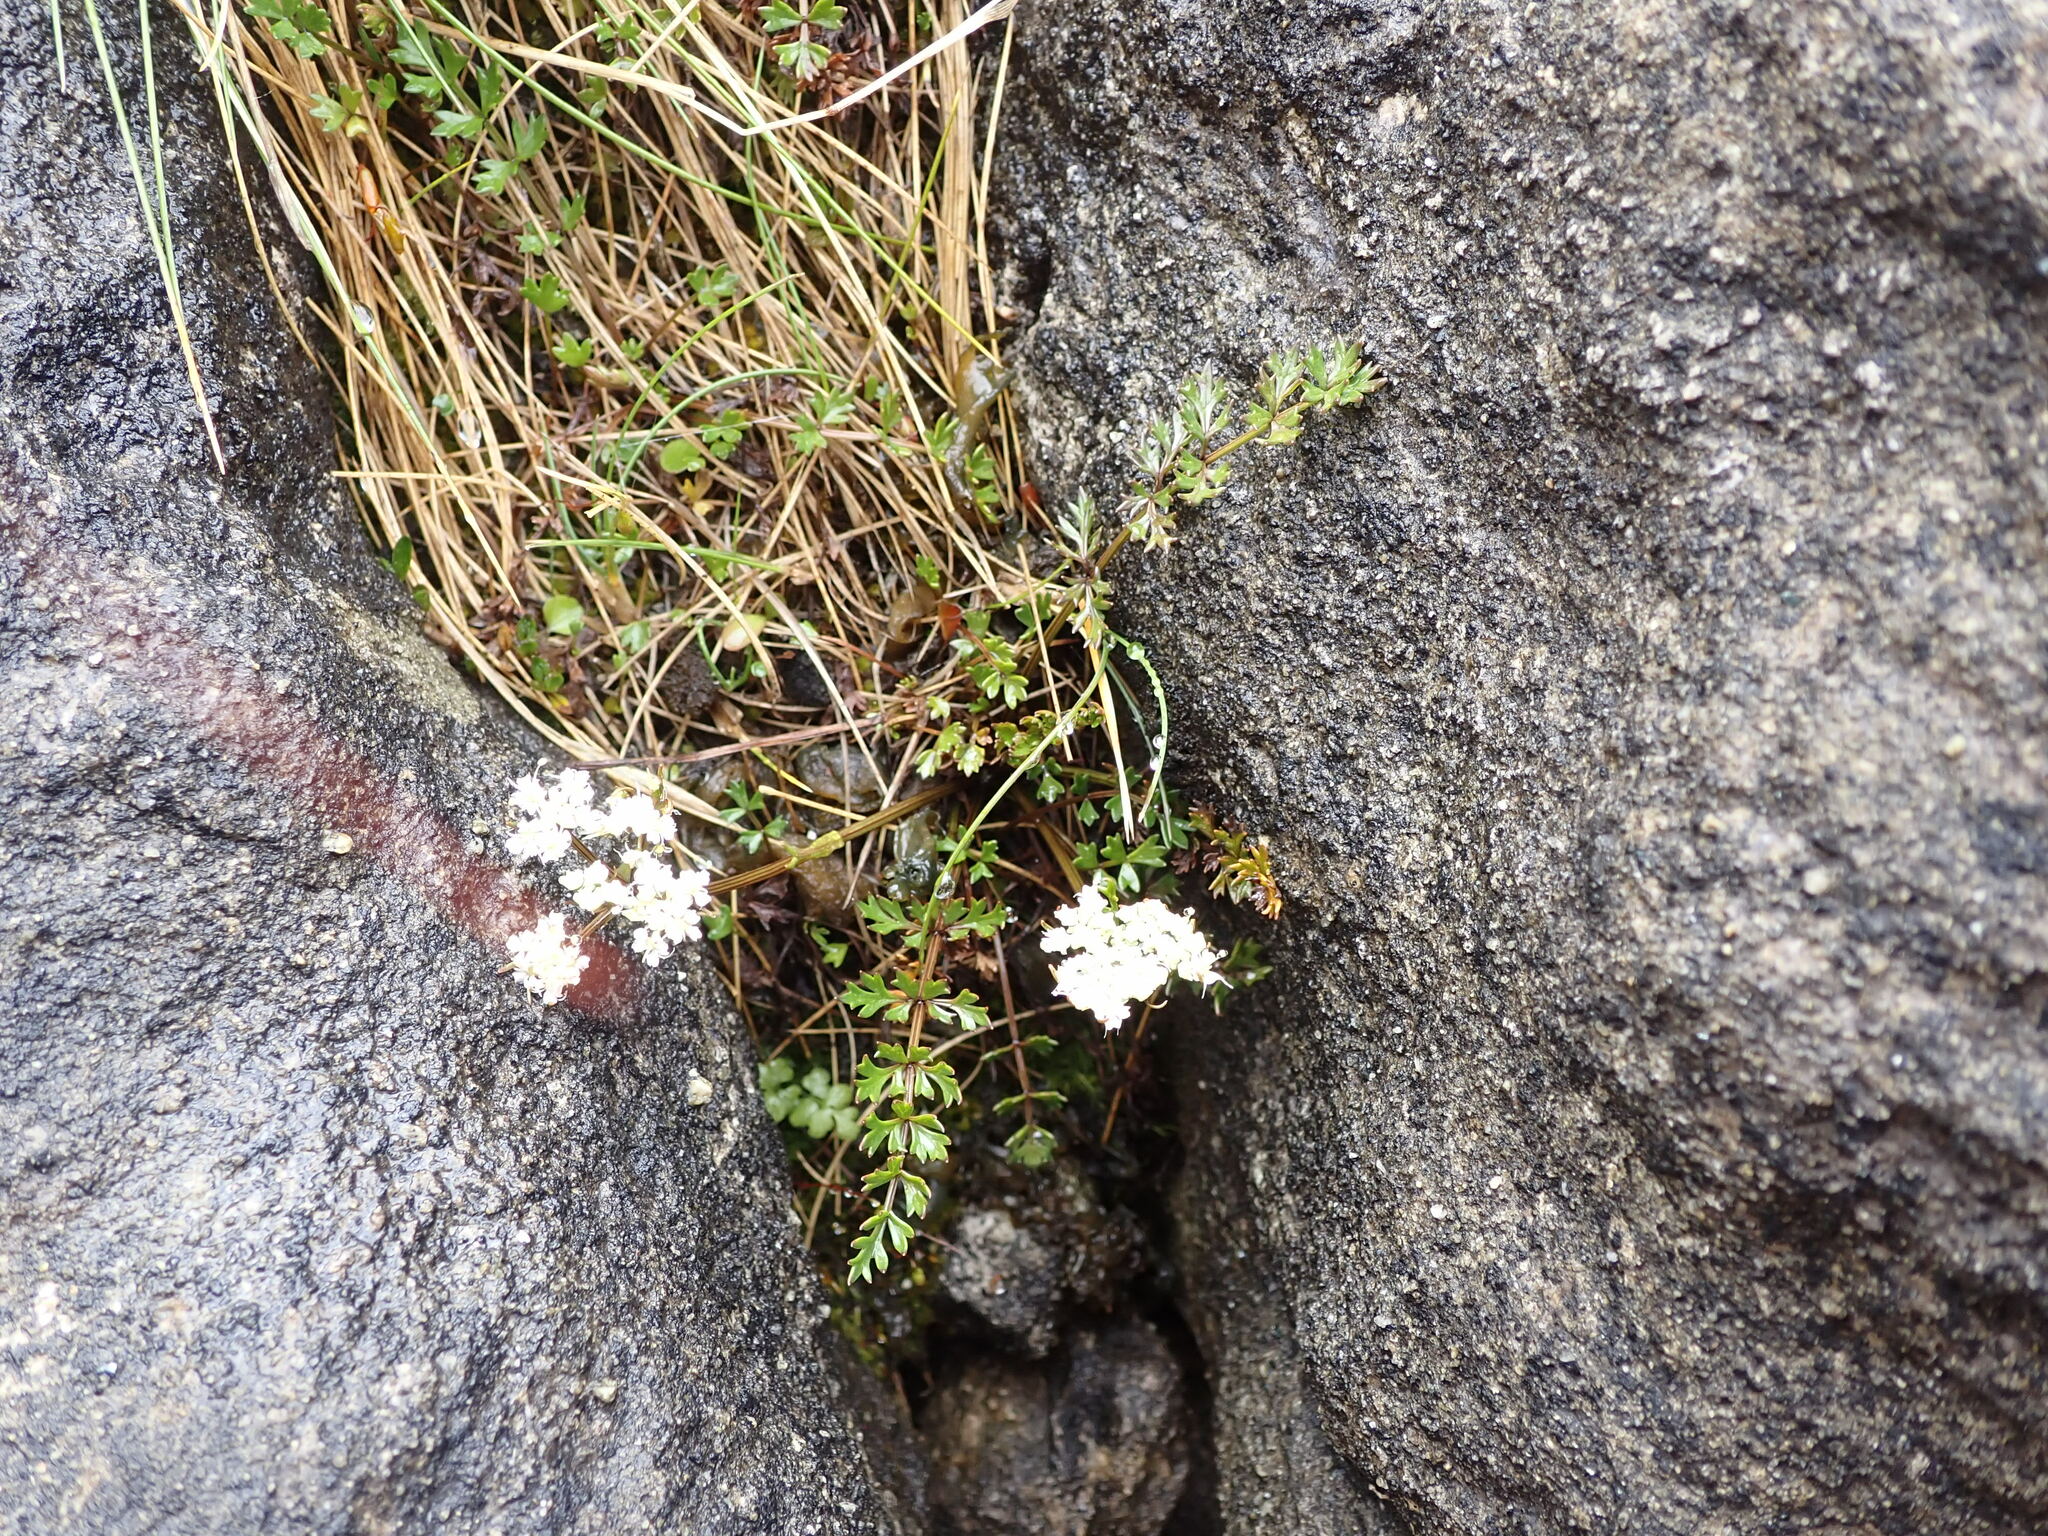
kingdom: Plantae
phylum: Tracheophyta
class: Magnoliopsida
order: Apiales
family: Apiaceae
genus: Gingidia
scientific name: Gingidia decipiens
